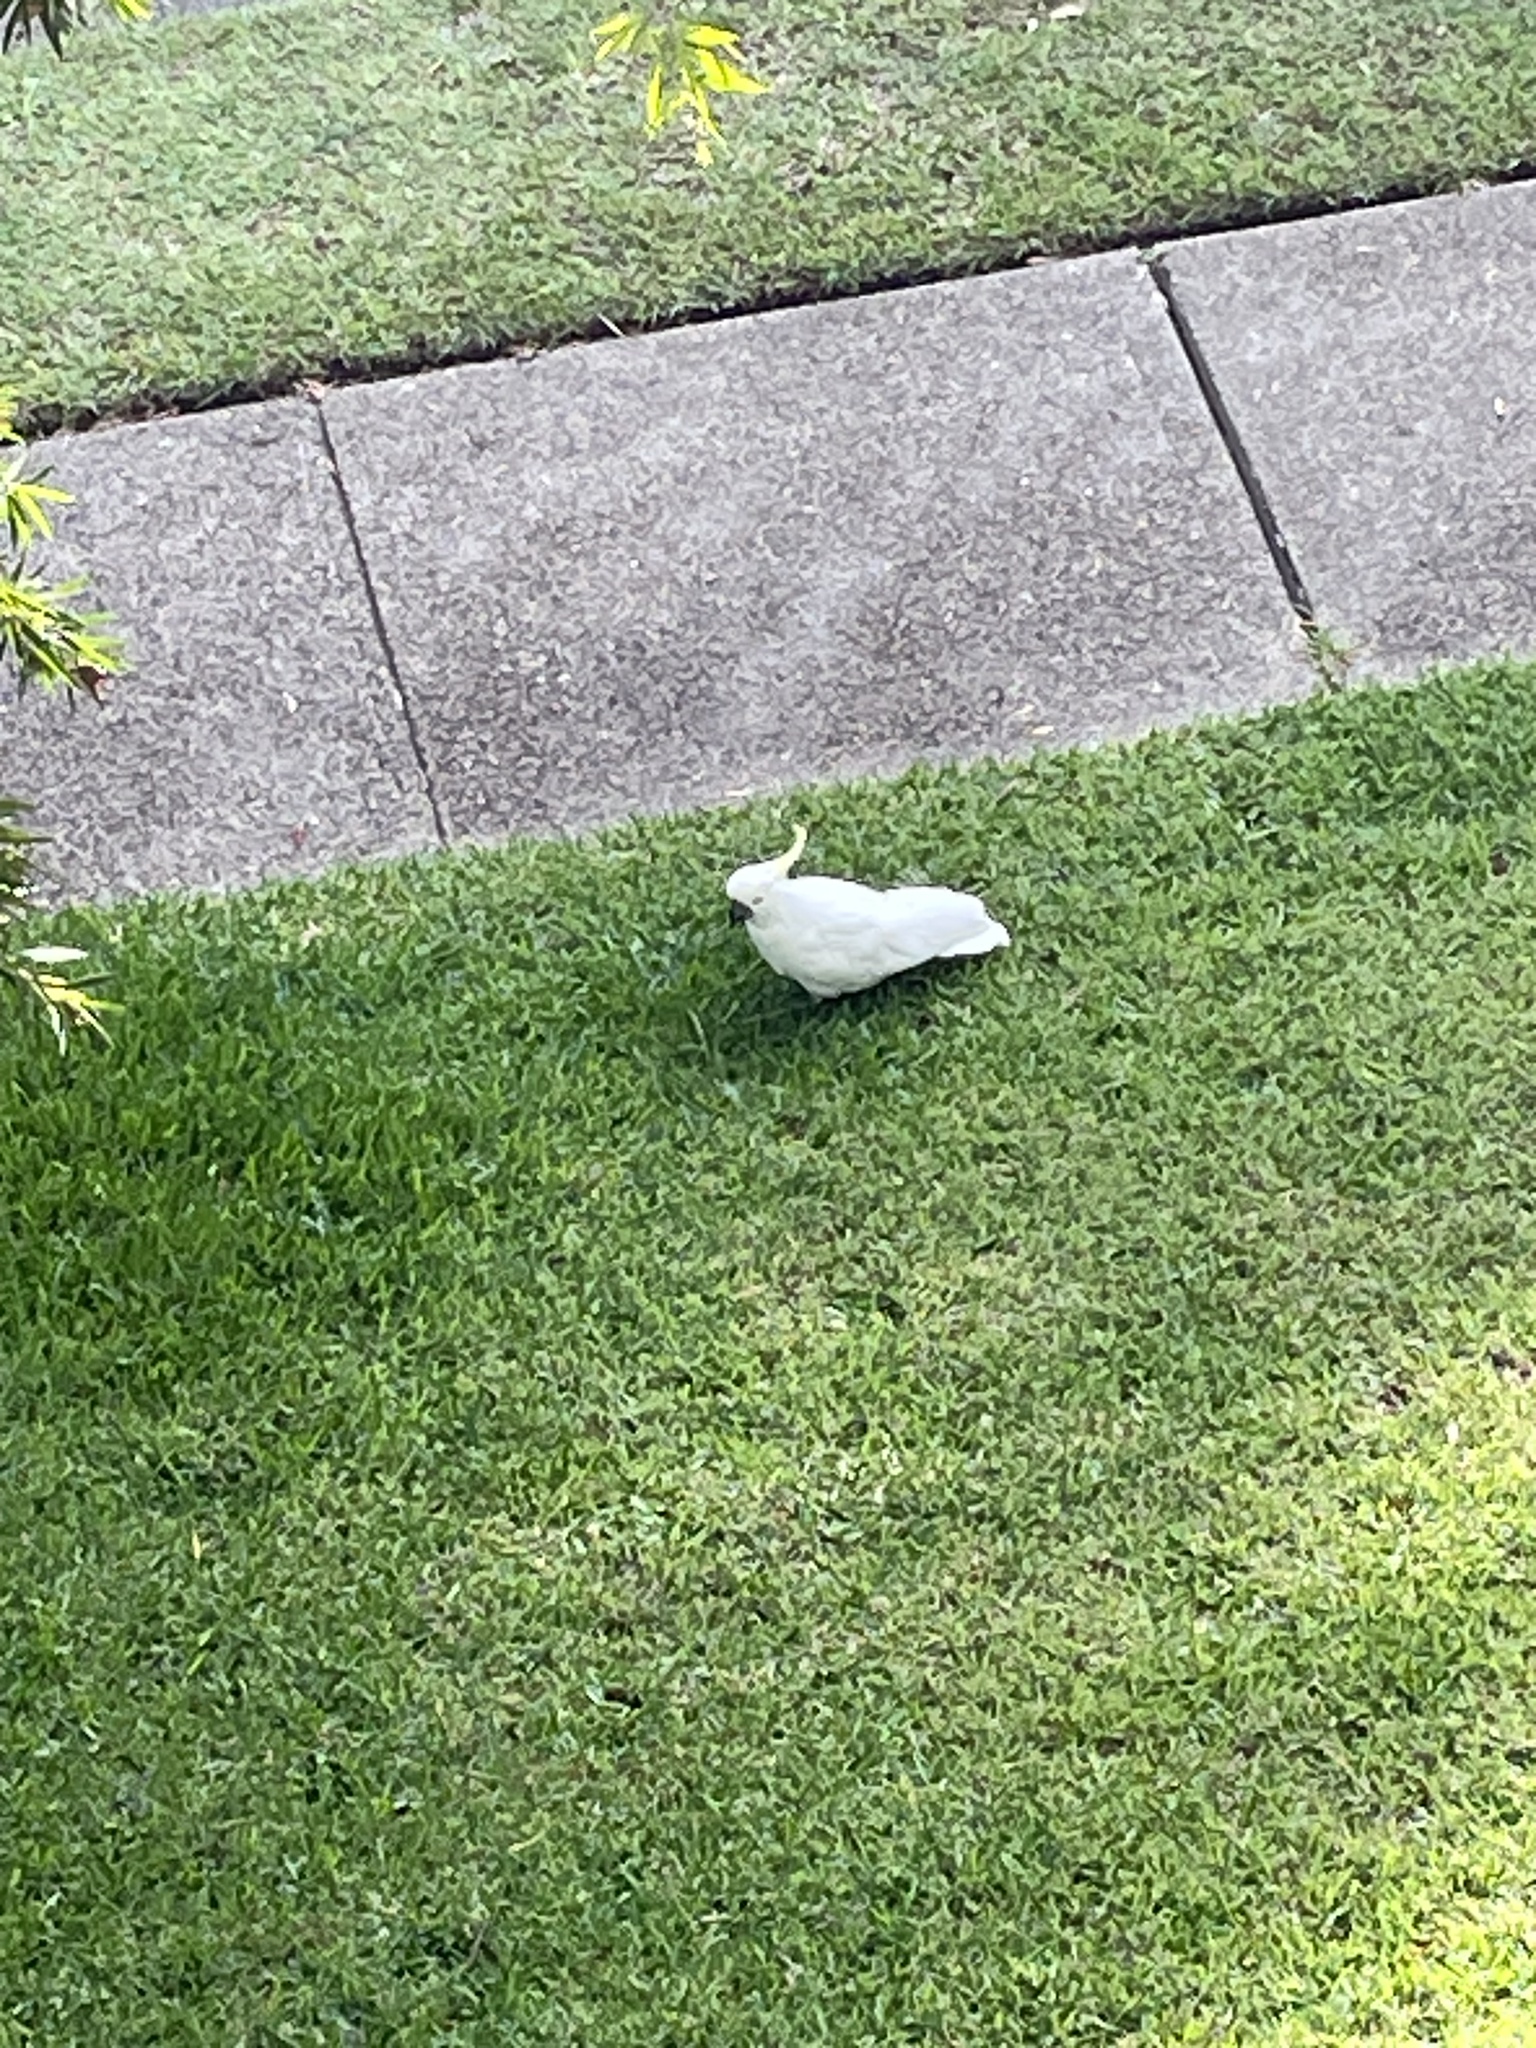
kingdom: Animalia
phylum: Chordata
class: Aves
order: Psittaciformes
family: Psittacidae
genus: Cacatua
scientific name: Cacatua galerita
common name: Sulphur-crested cockatoo
